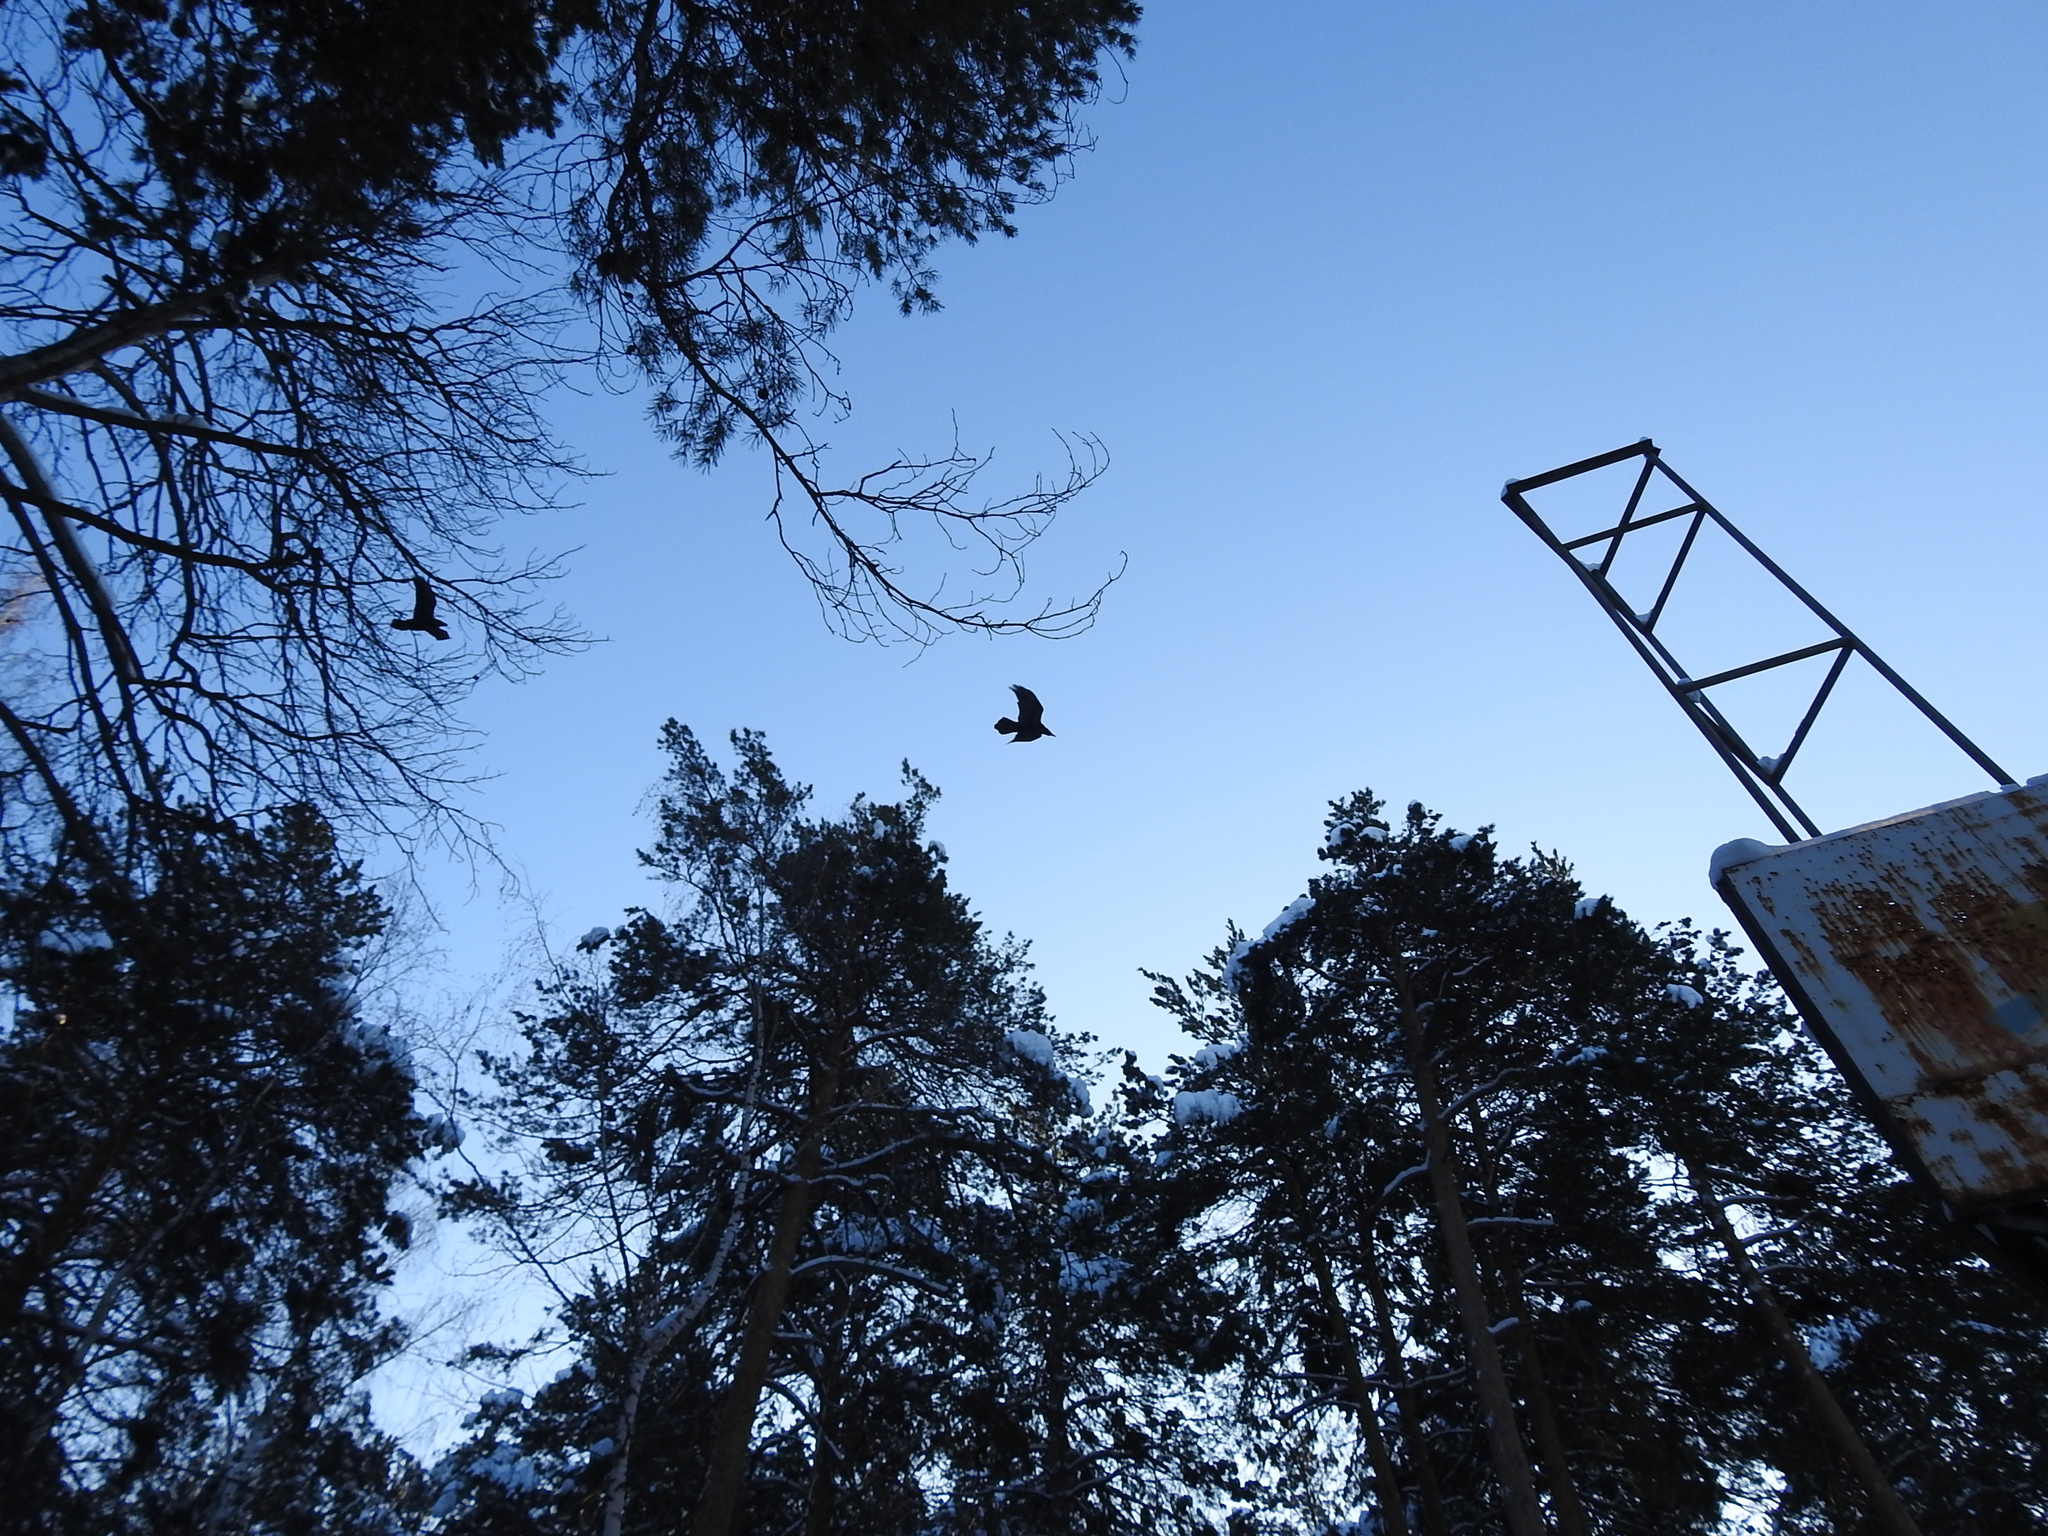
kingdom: Animalia
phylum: Chordata
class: Aves
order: Passeriformes
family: Corvidae
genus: Corvus
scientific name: Corvus corax
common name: Common raven
